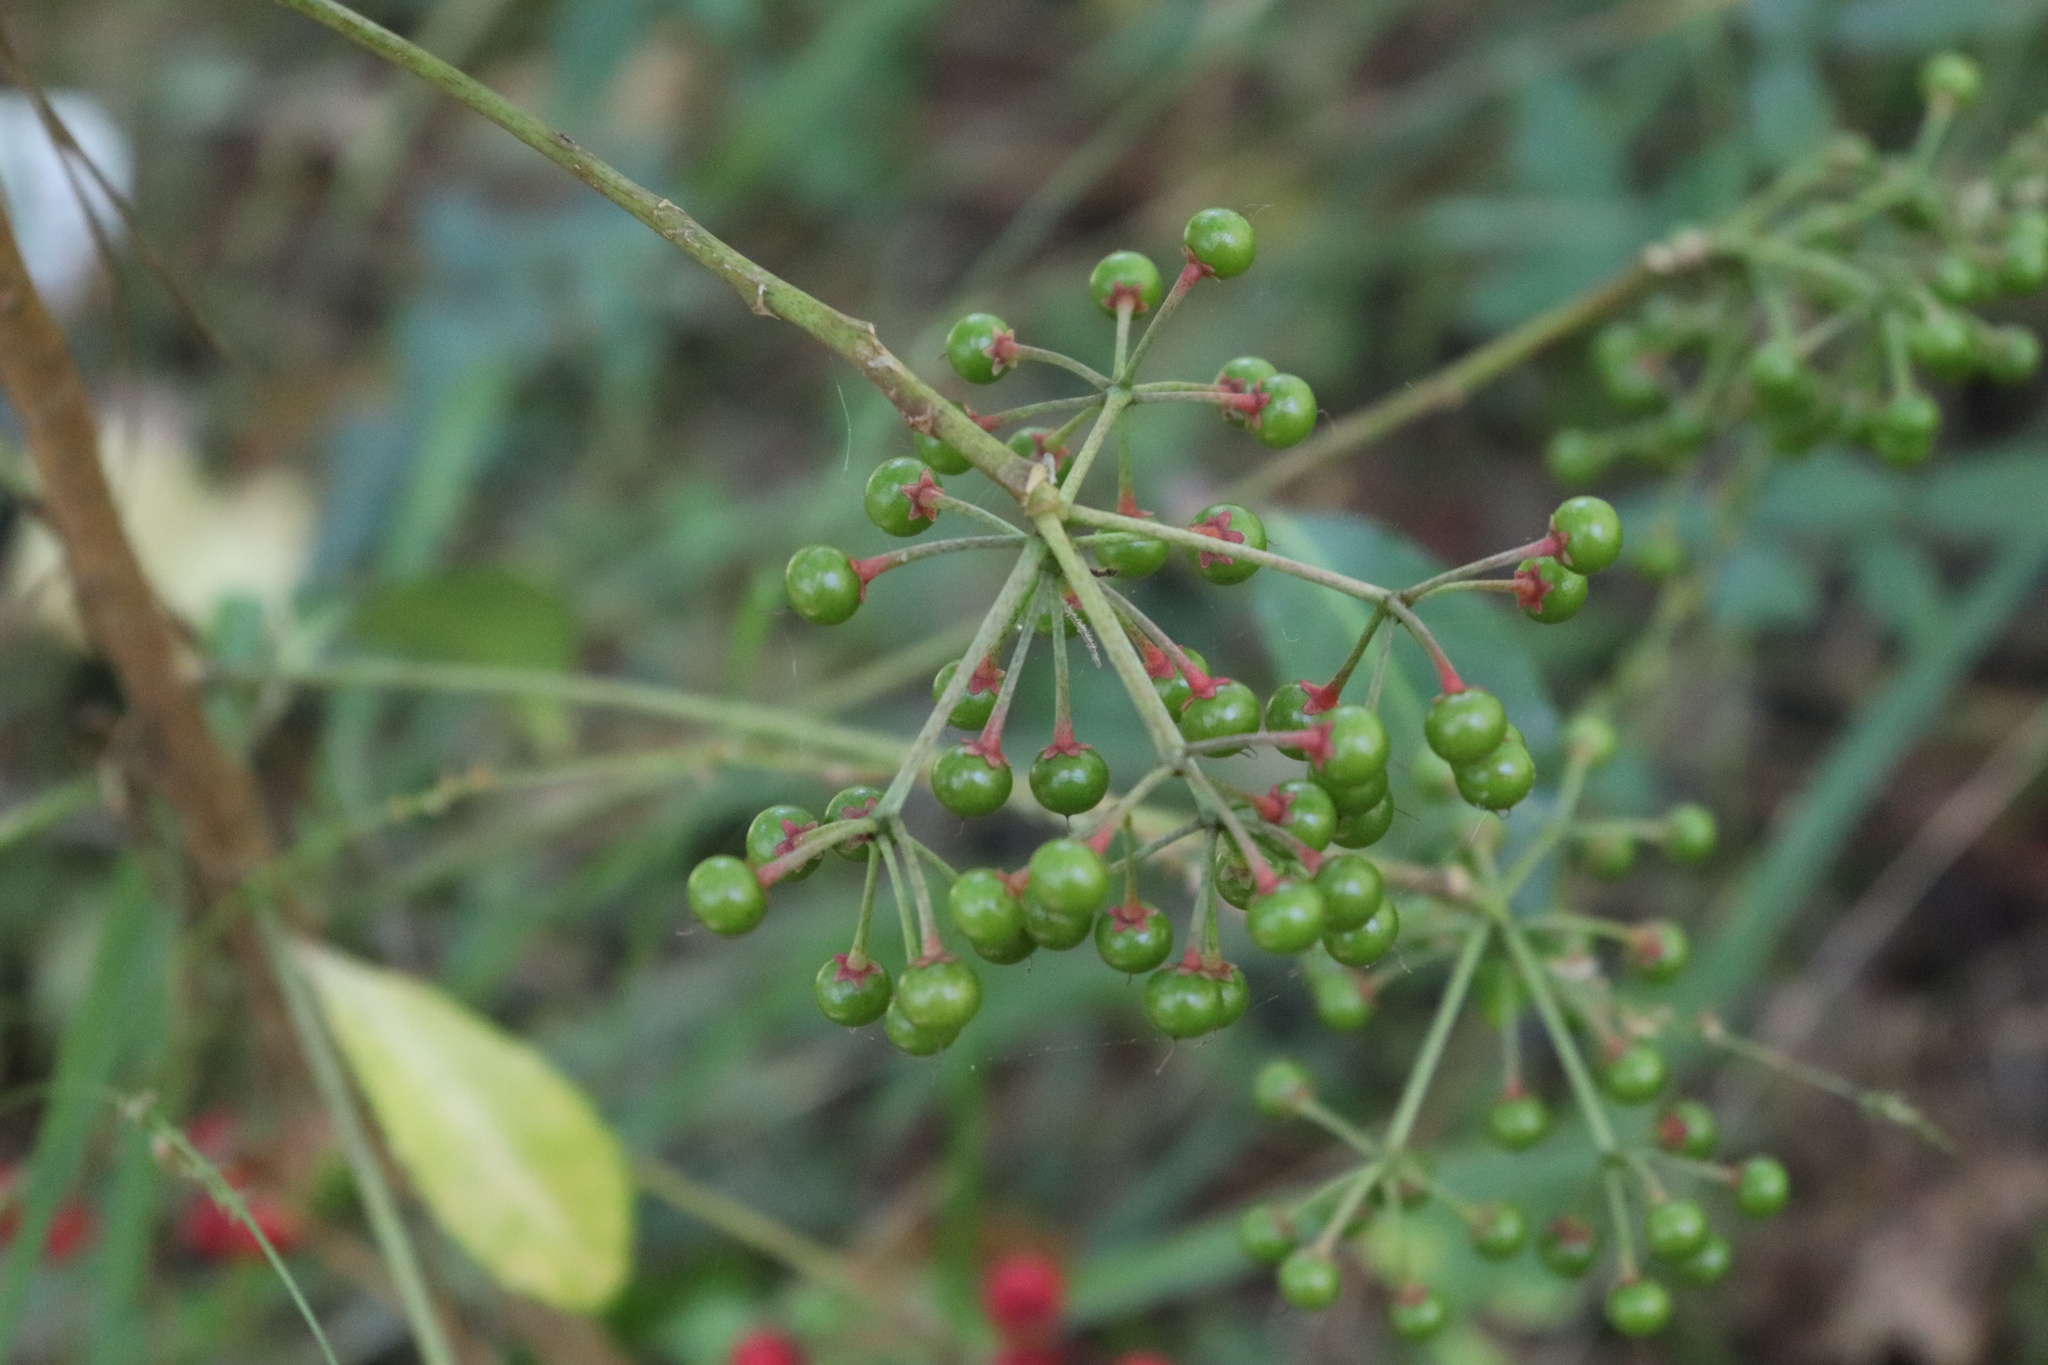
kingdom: Plantae
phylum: Tracheophyta
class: Magnoliopsida
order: Ericales
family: Primulaceae
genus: Ardisia
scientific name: Ardisia crenata
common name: Hen's eyes
